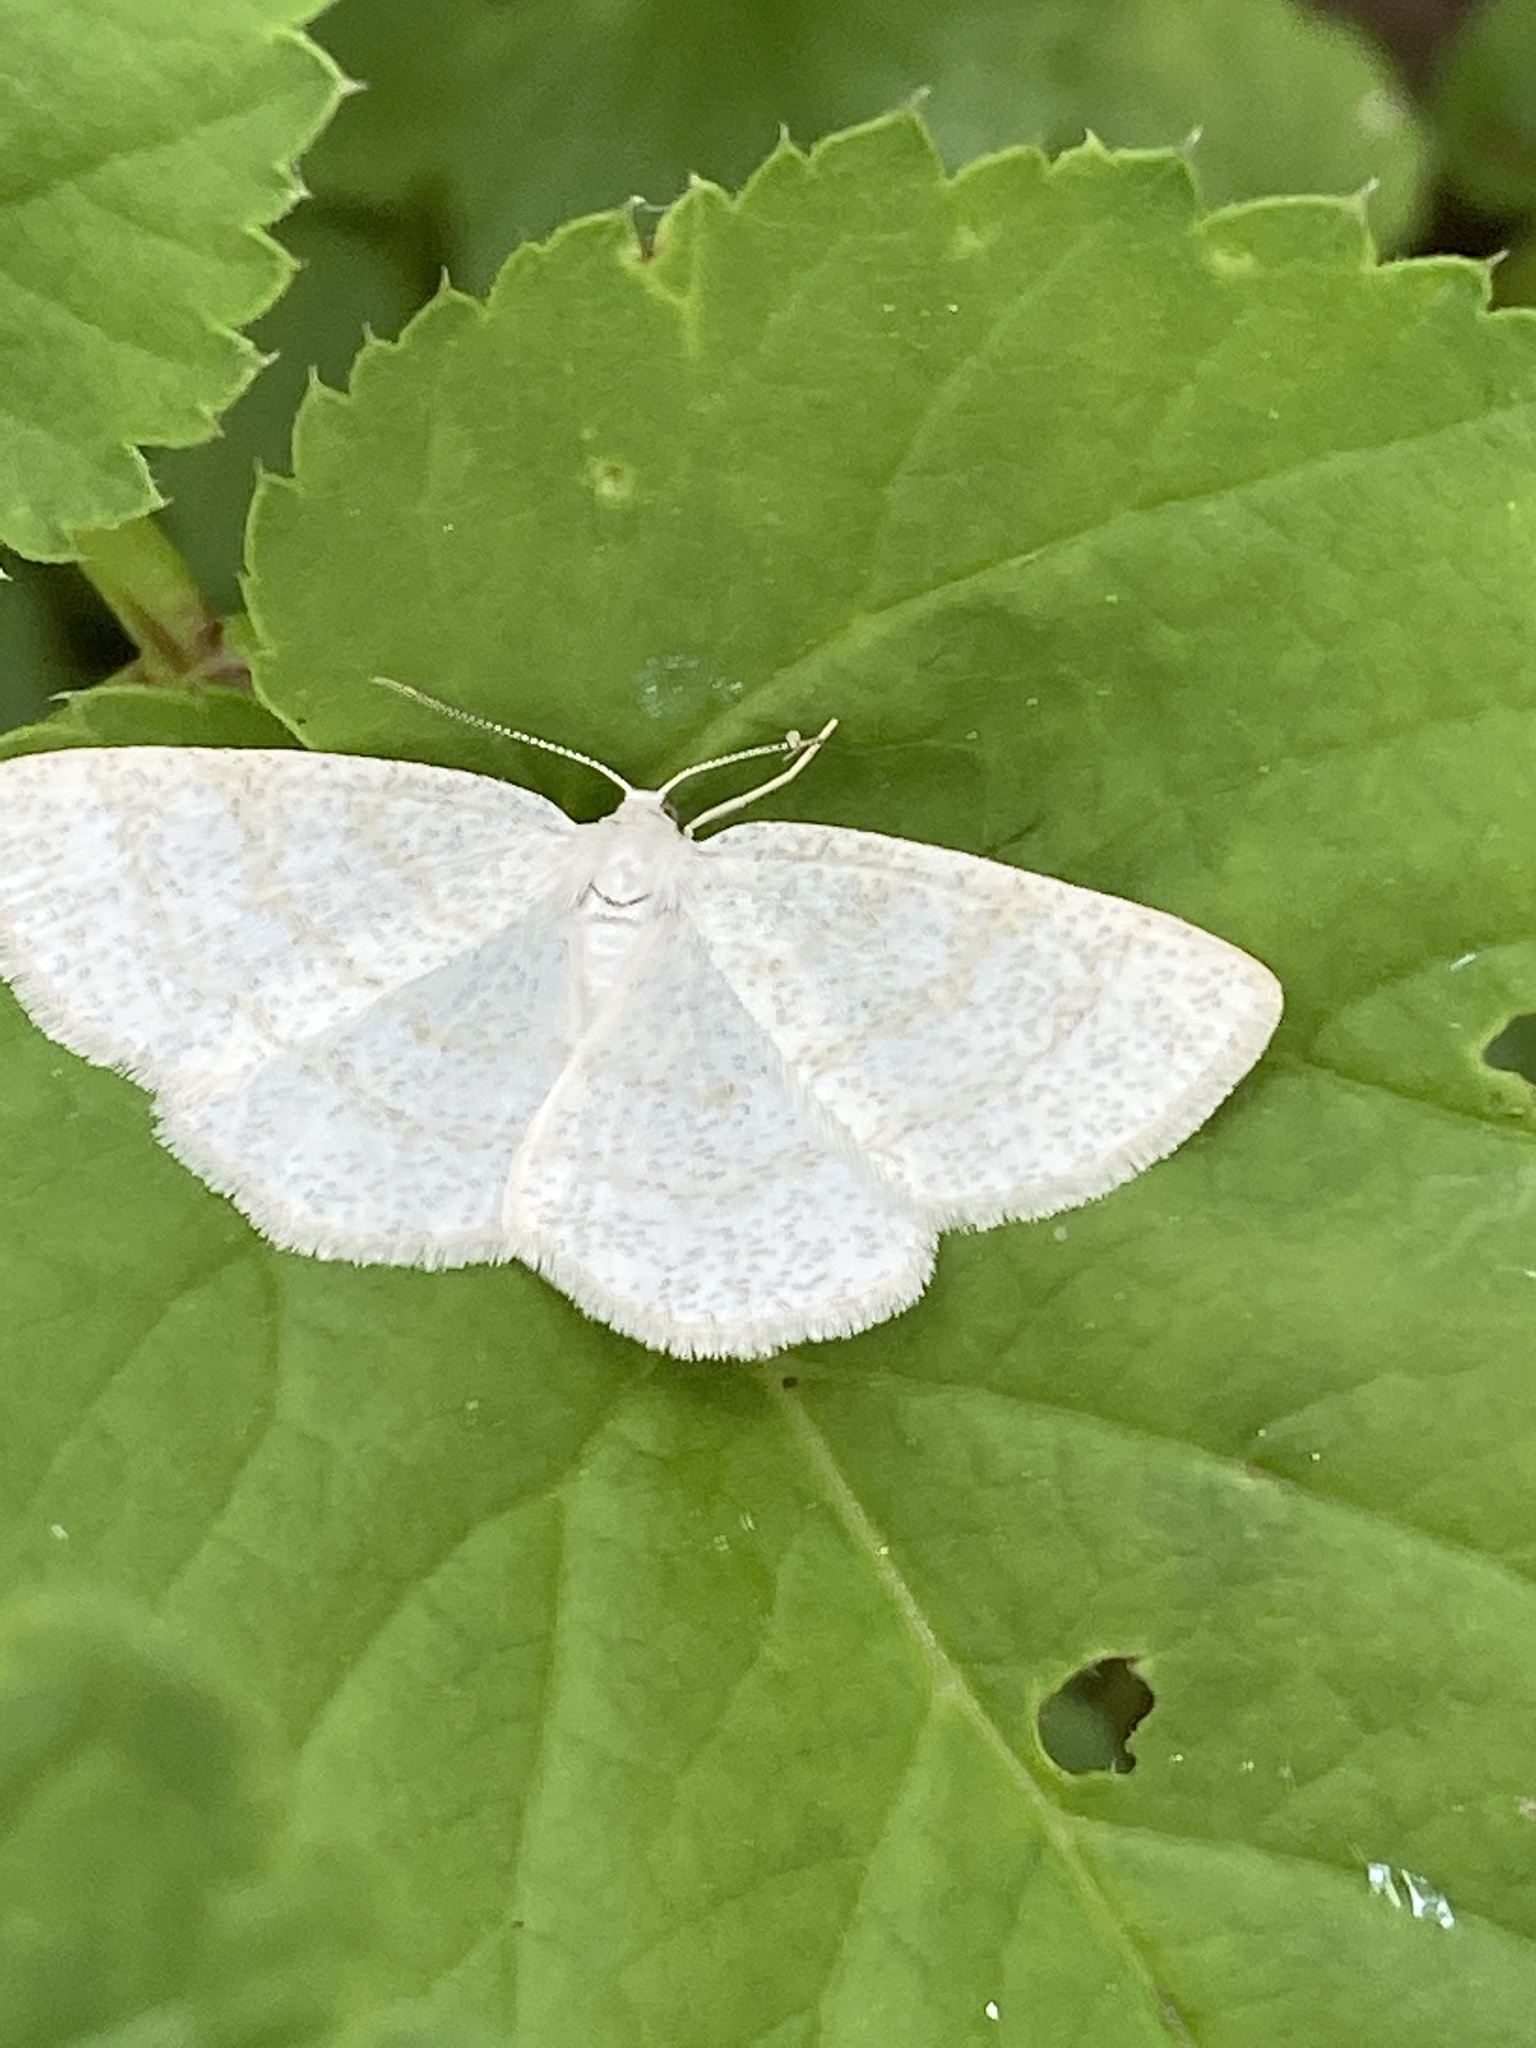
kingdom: Animalia
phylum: Arthropoda
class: Insecta
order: Lepidoptera
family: Geometridae
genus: Cabera
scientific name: Cabera exanthemata
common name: Common wave
